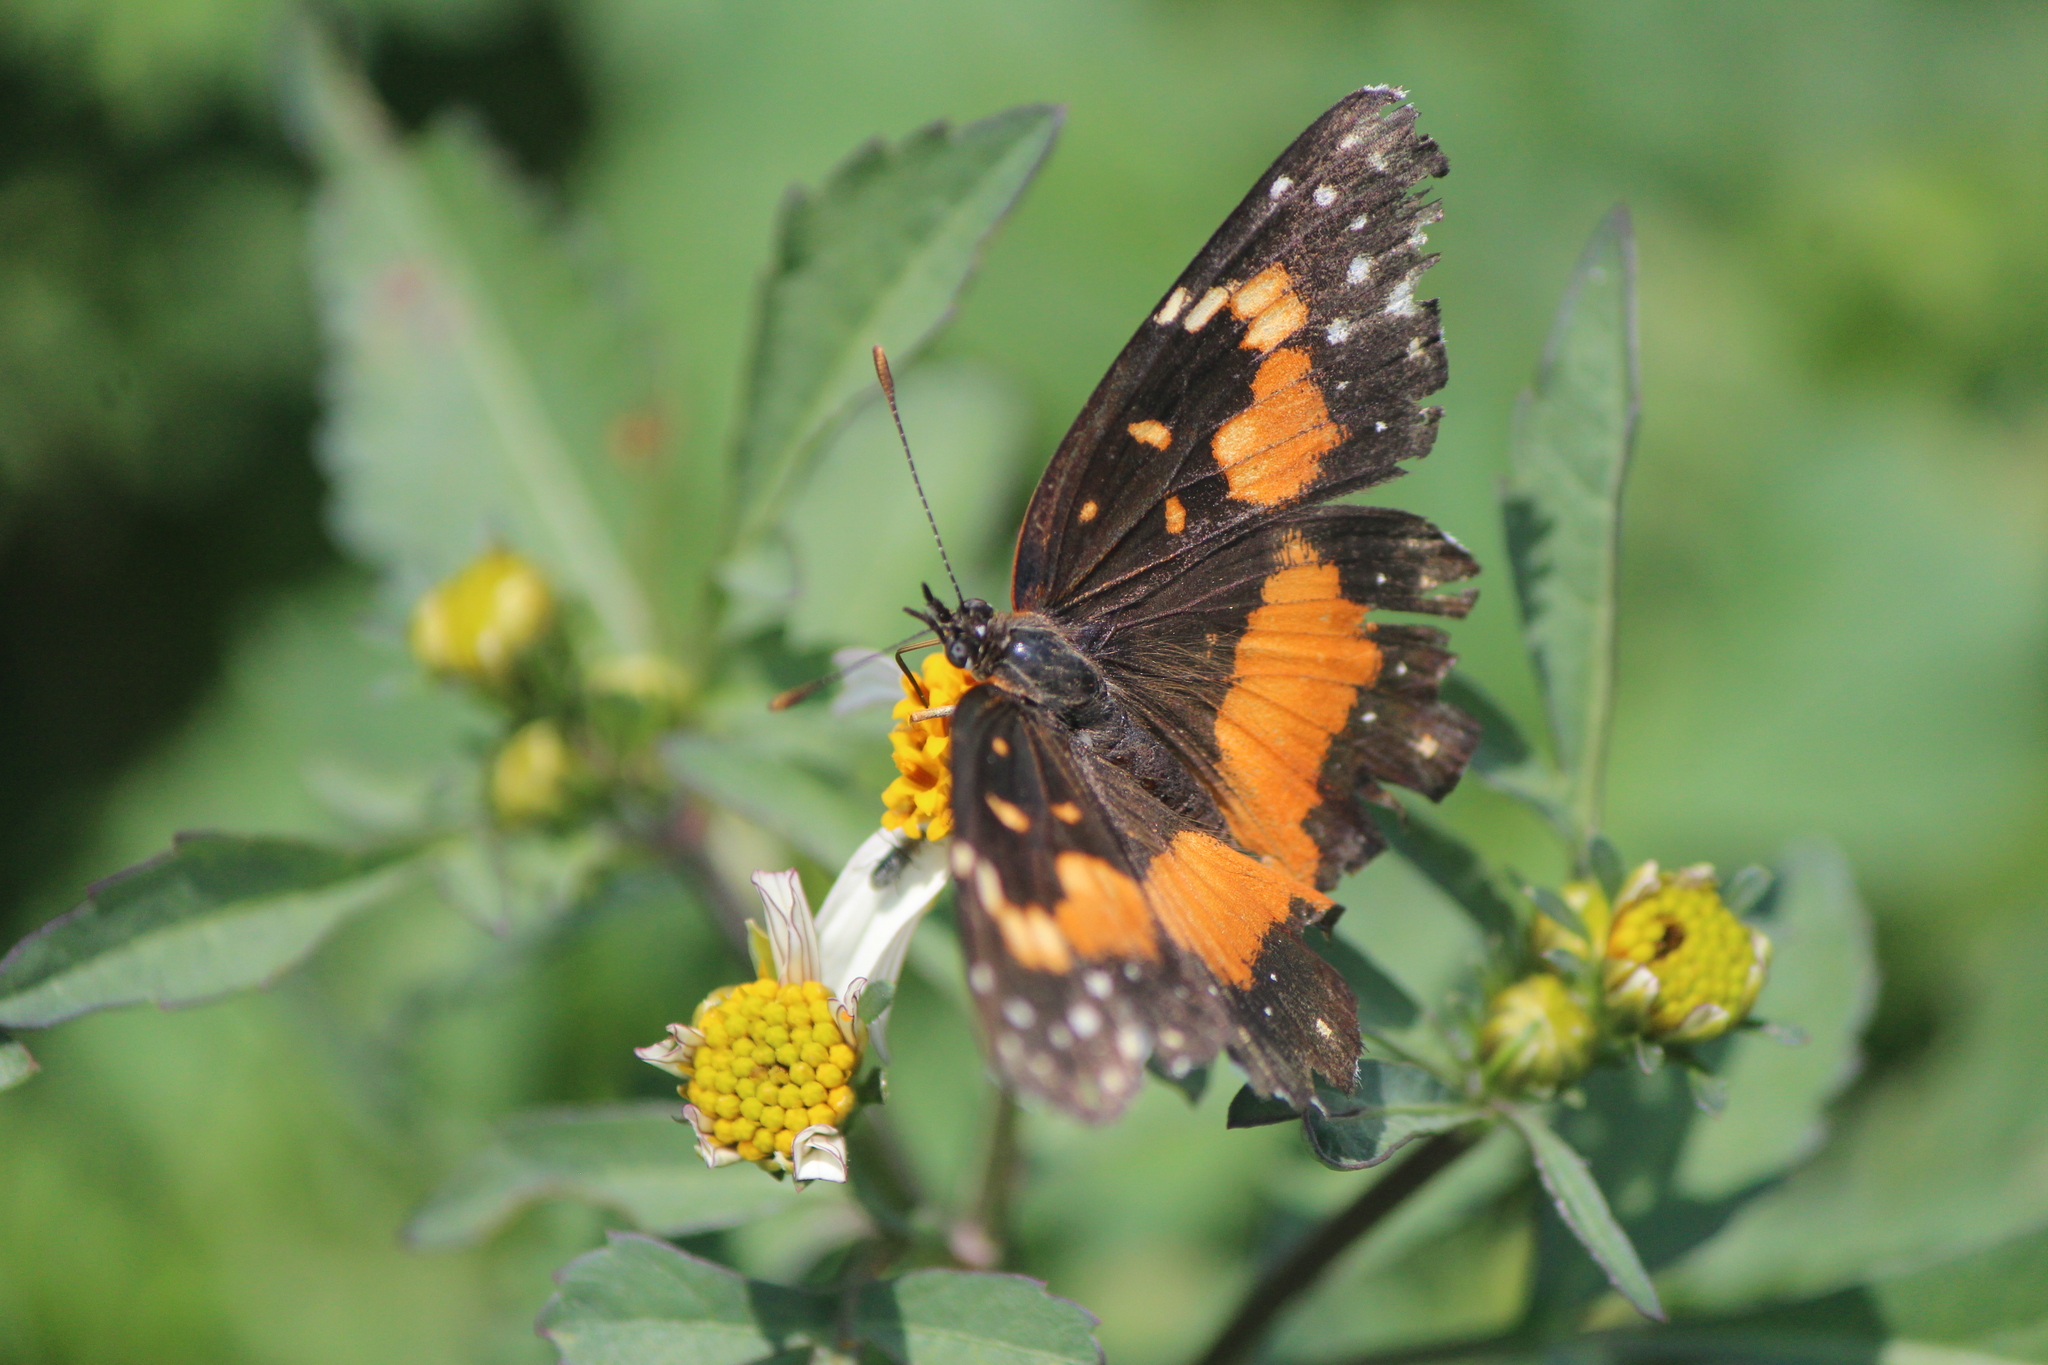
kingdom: Animalia
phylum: Arthropoda
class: Insecta
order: Lepidoptera
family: Nymphalidae
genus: Chlosyne
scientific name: Chlosyne lacinia
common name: Bordered patch
